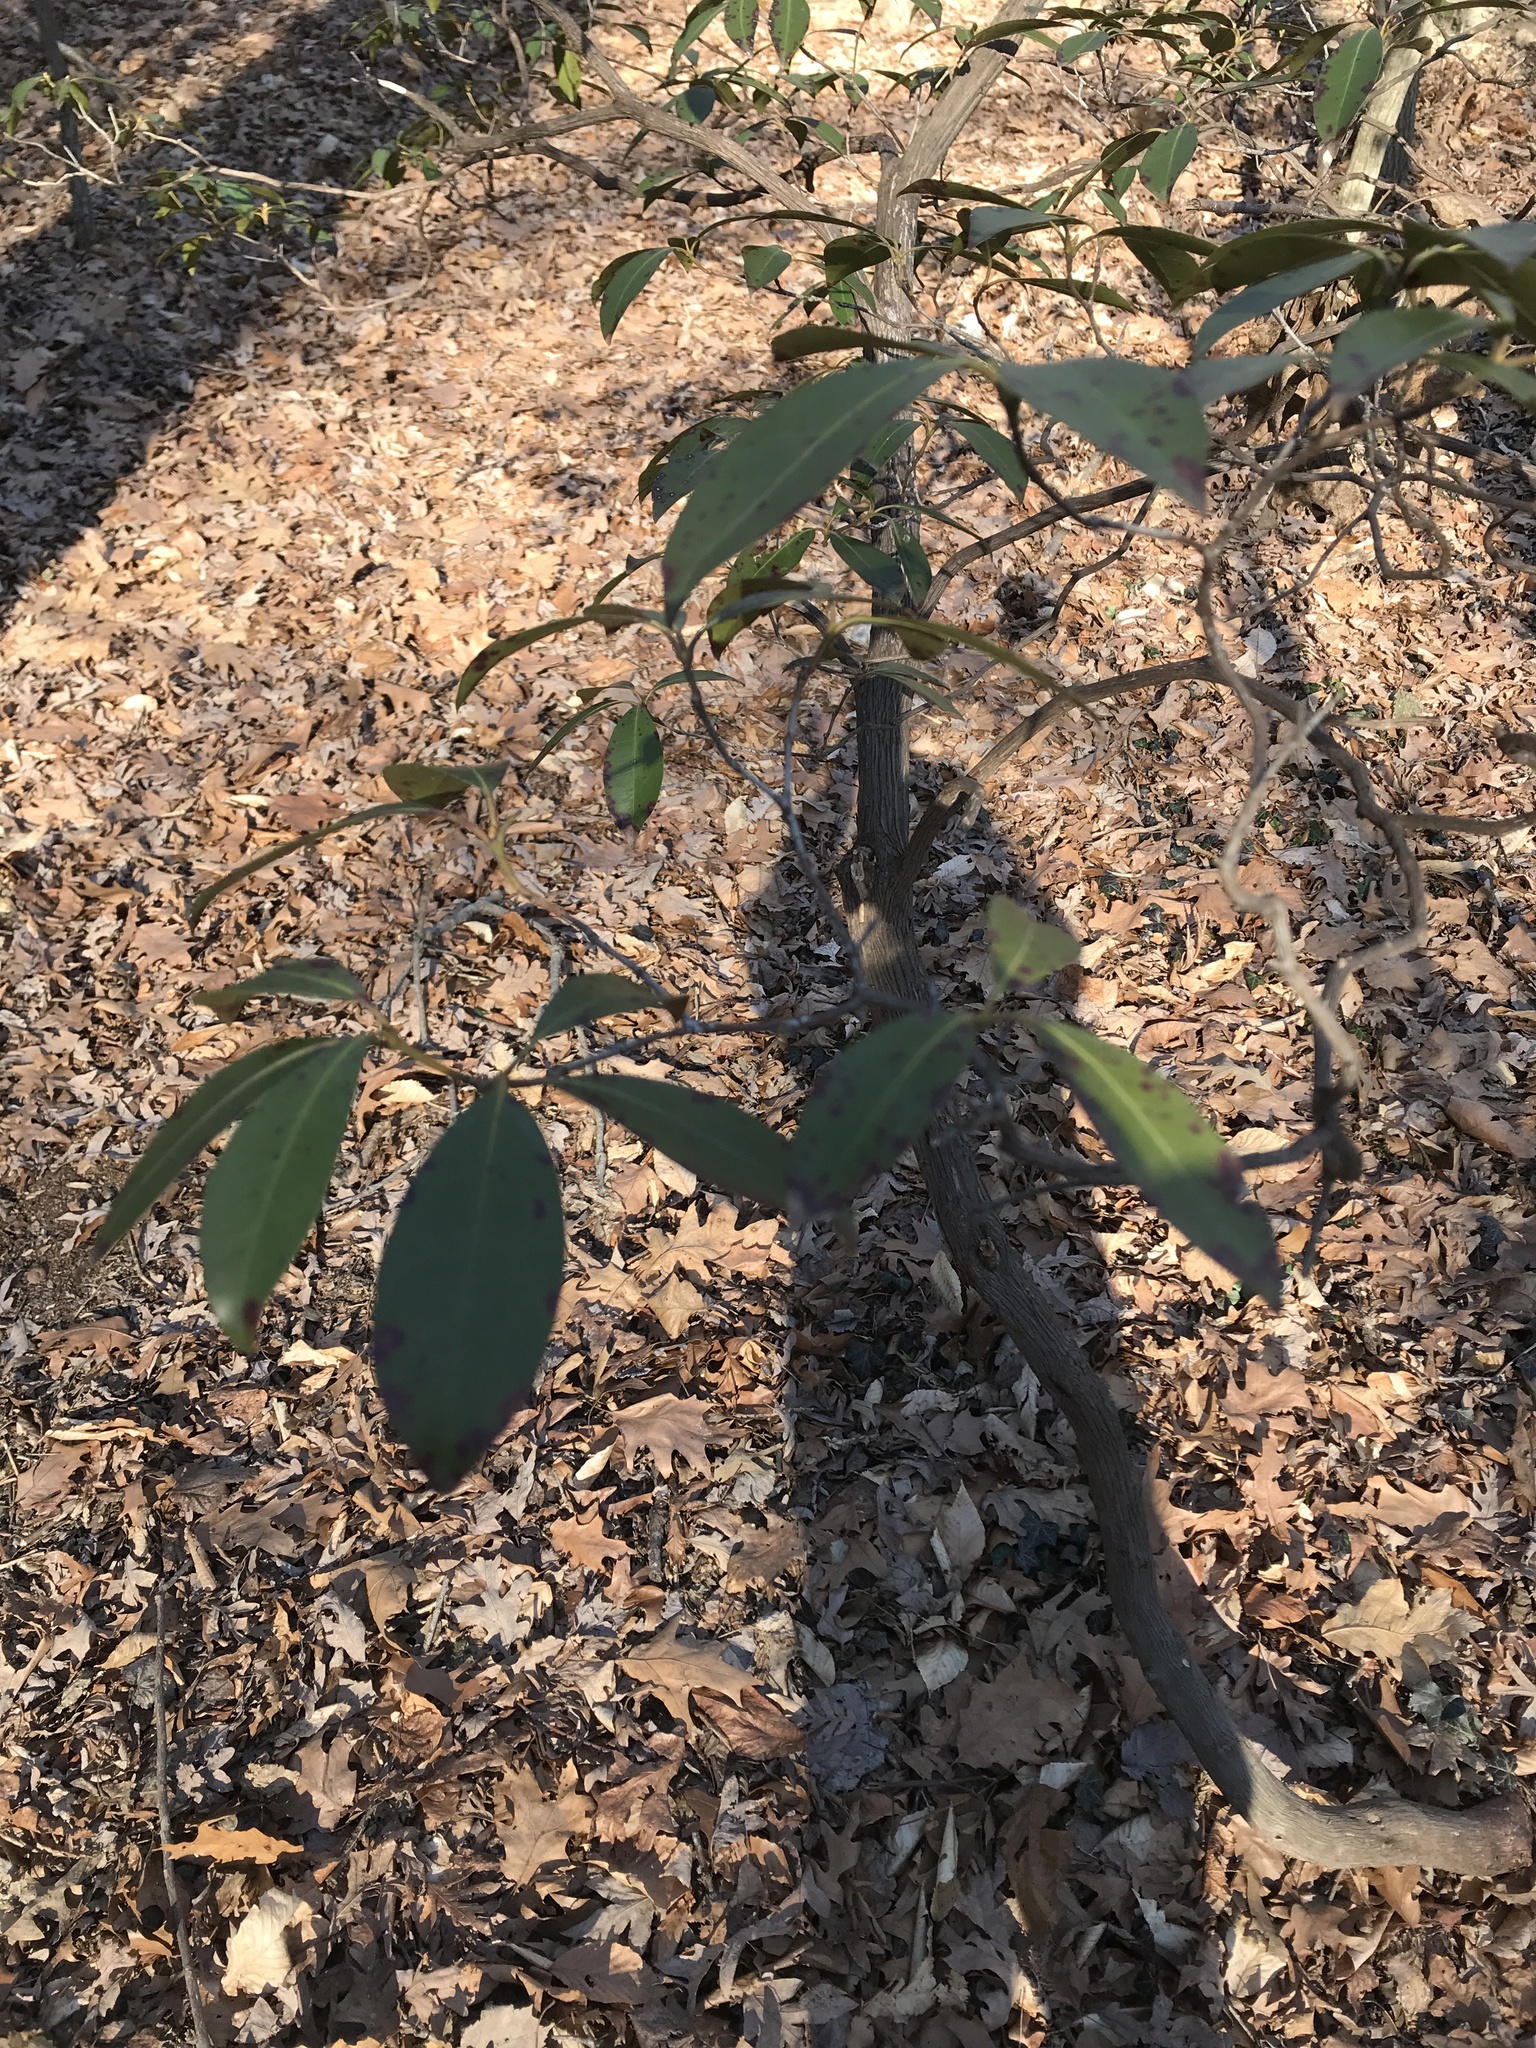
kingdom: Plantae
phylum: Tracheophyta
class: Magnoliopsida
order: Ericales
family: Ericaceae
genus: Kalmia
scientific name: Kalmia latifolia
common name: Mountain-laurel
